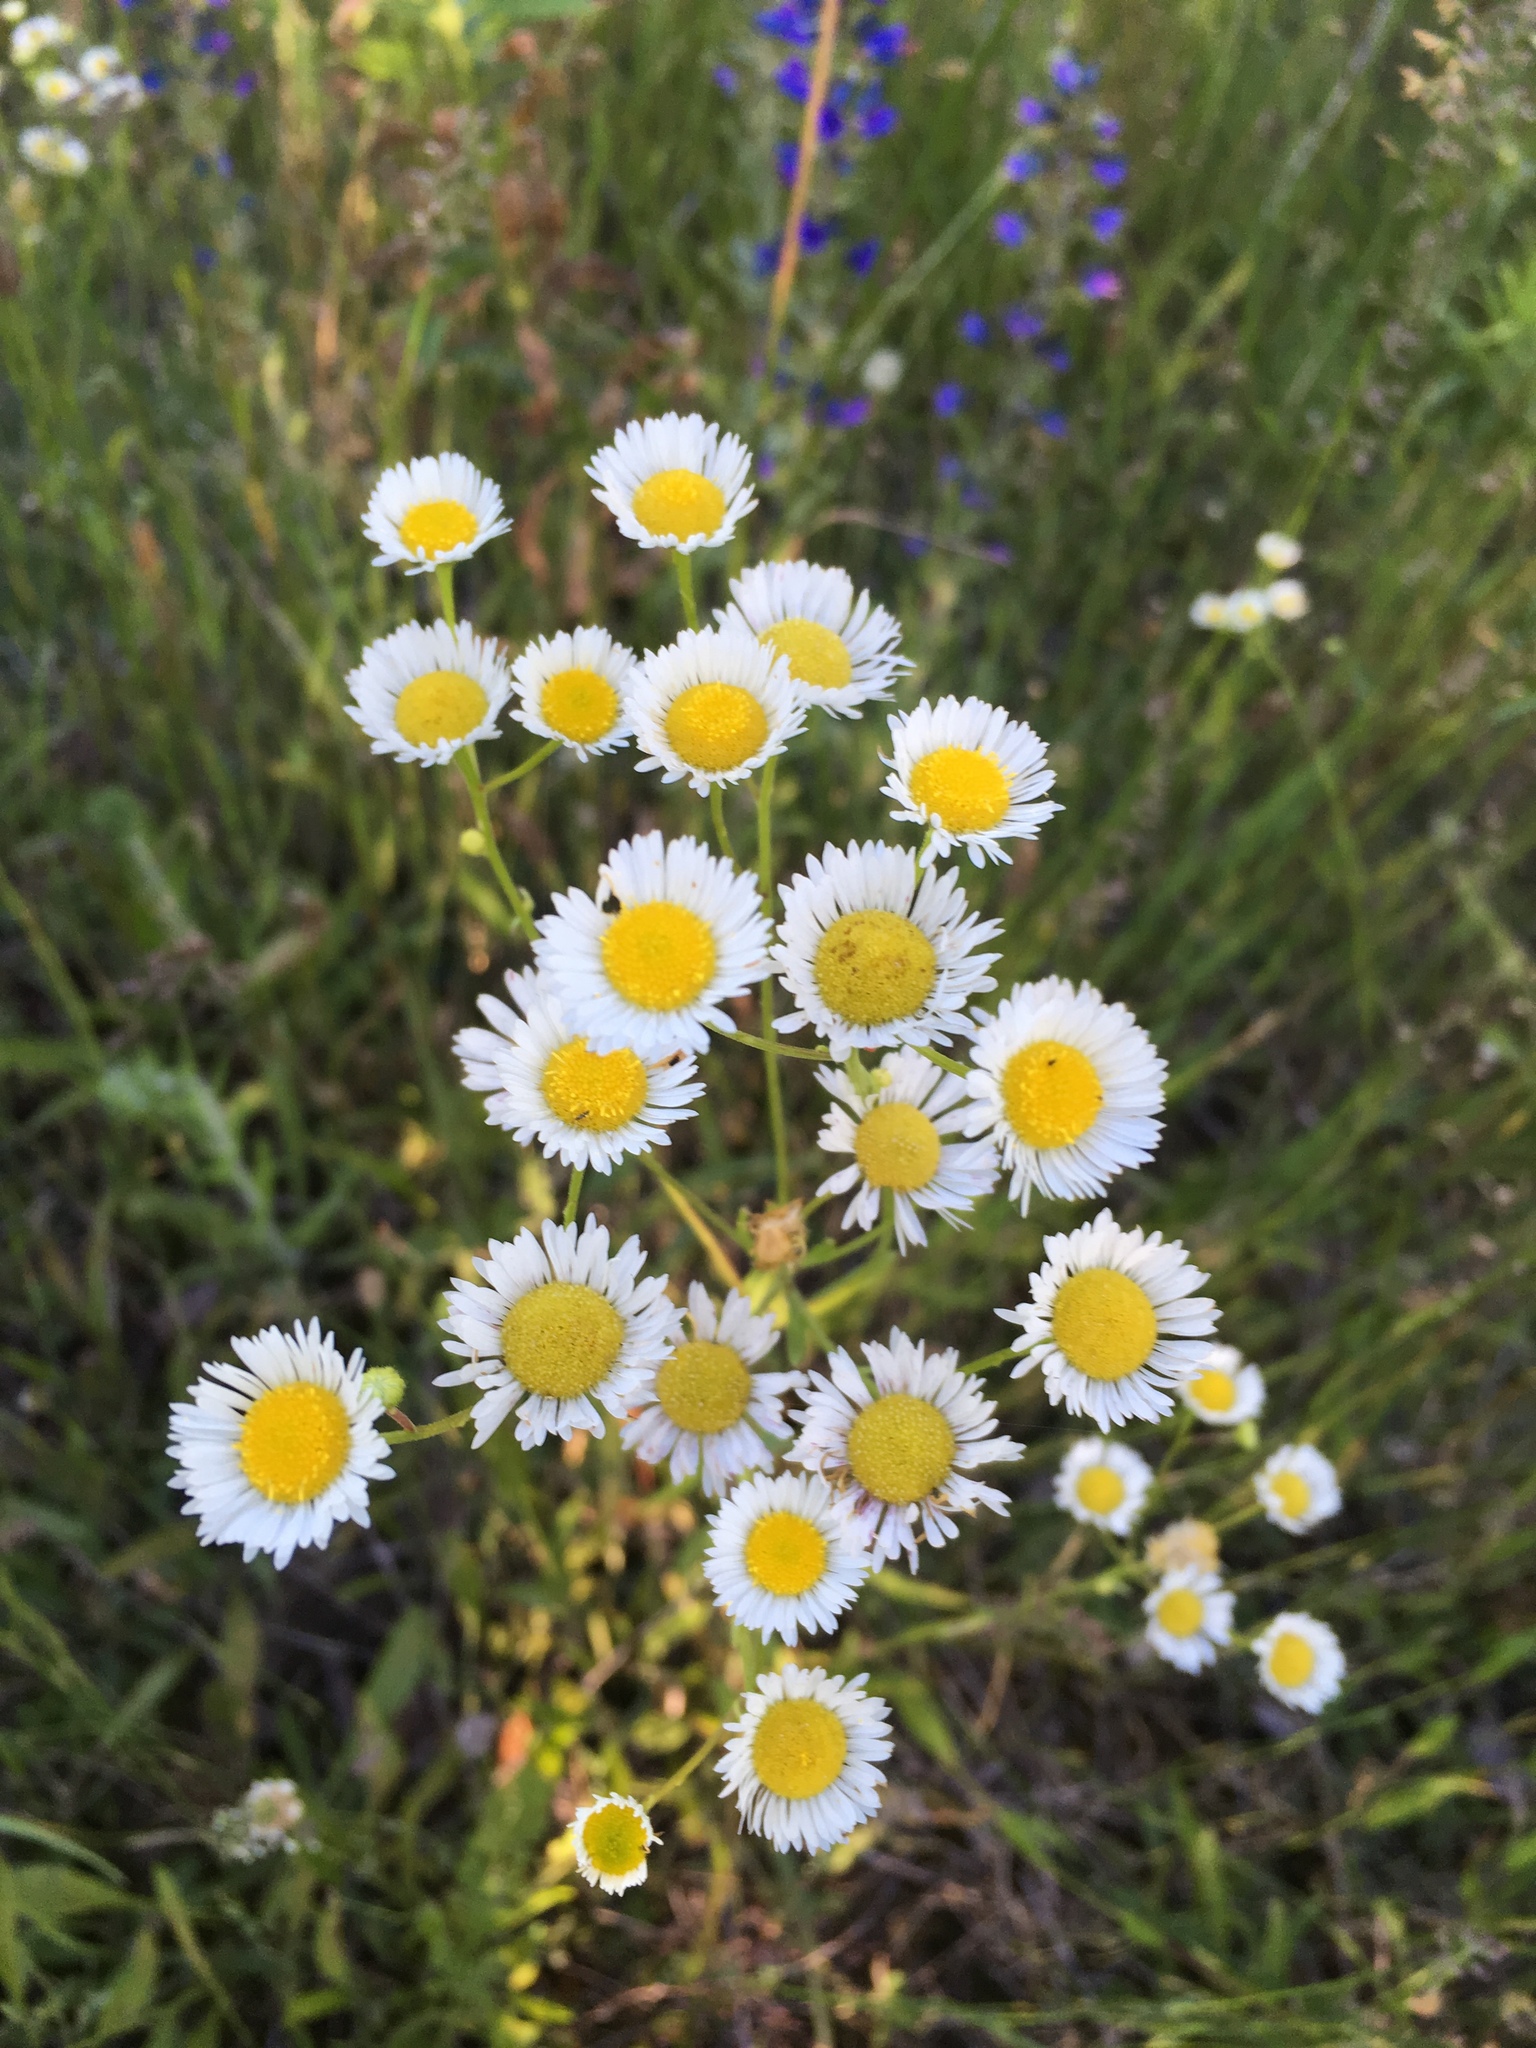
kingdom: Plantae
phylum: Tracheophyta
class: Magnoliopsida
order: Asterales
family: Asteraceae
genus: Erigeron
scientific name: Erigeron annuus
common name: Tall fleabane
